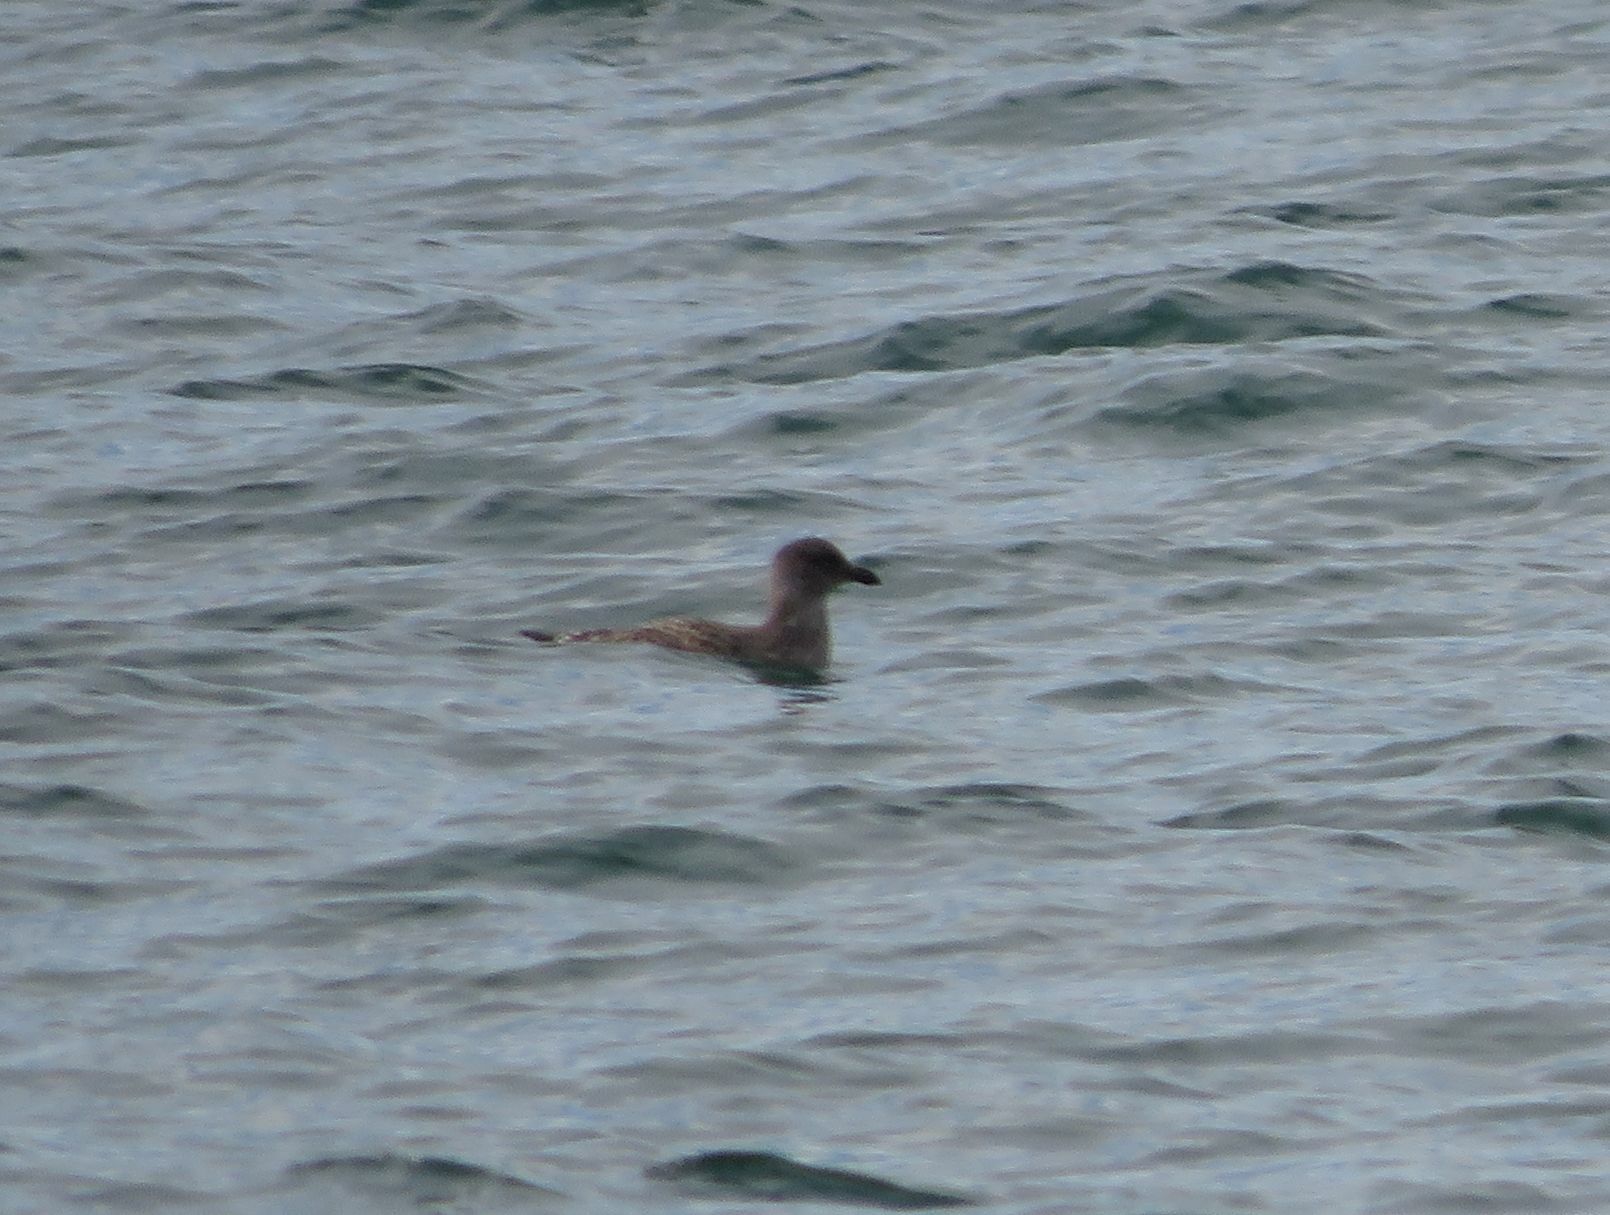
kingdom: Animalia
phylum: Chordata
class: Aves
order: Charadriiformes
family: Laridae
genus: Larus
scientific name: Larus dominicanus
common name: Kelp gull
